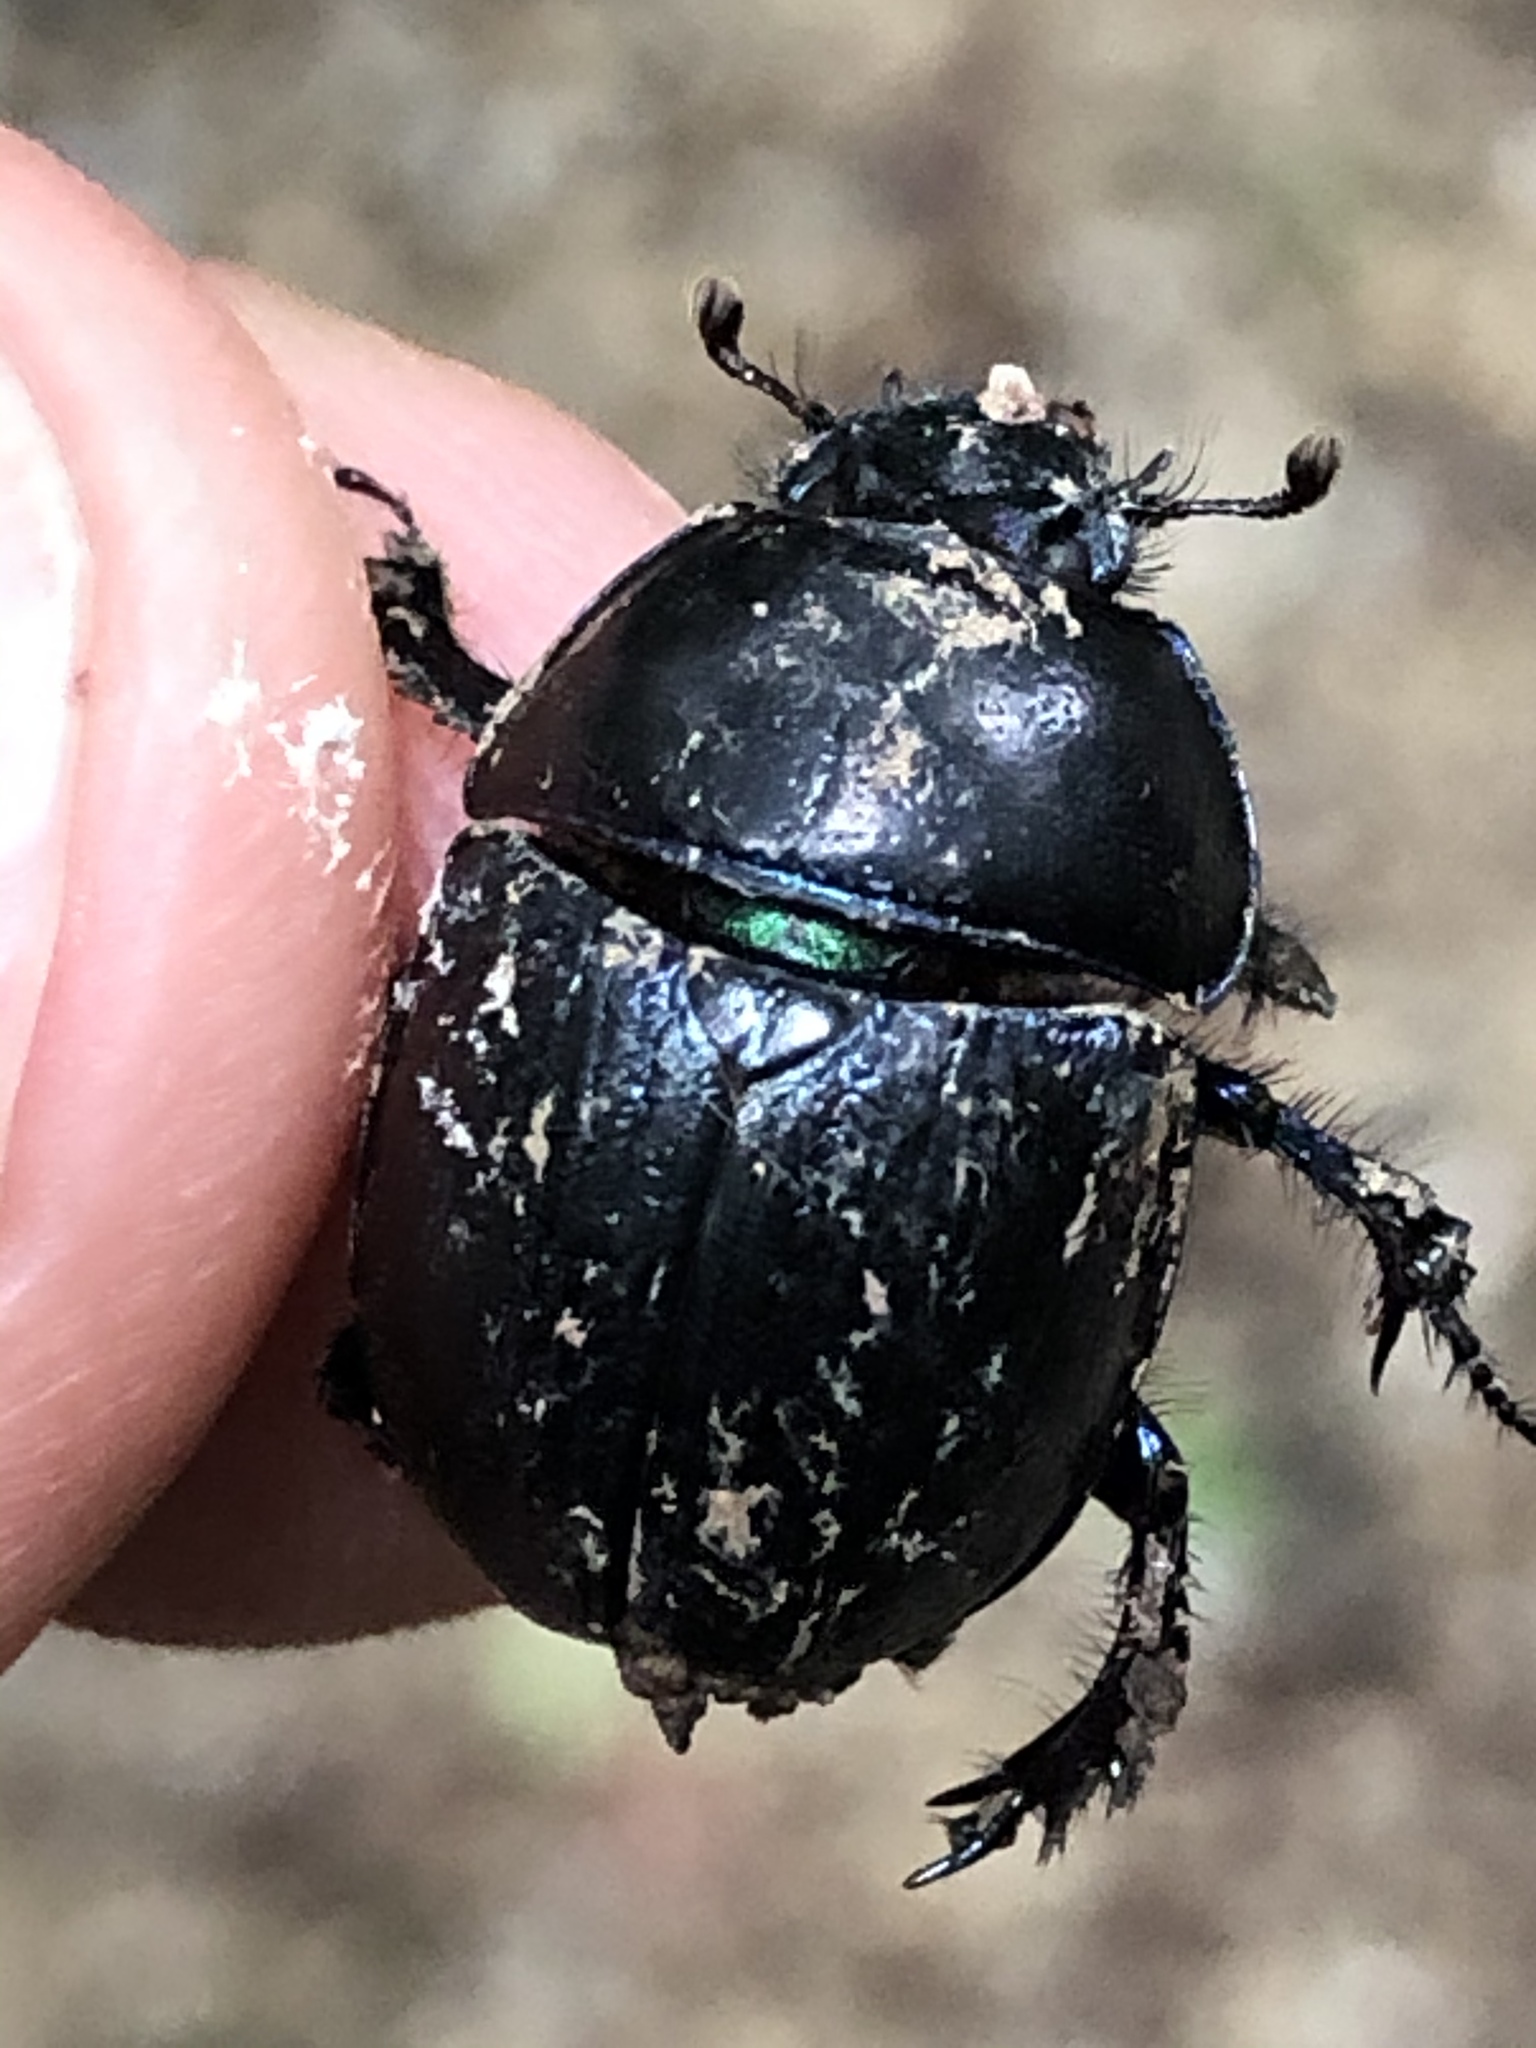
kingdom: Animalia
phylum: Arthropoda
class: Insecta
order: Coleoptera
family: Geotrupidae
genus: Anoplotrupes
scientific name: Anoplotrupes stercorosus
